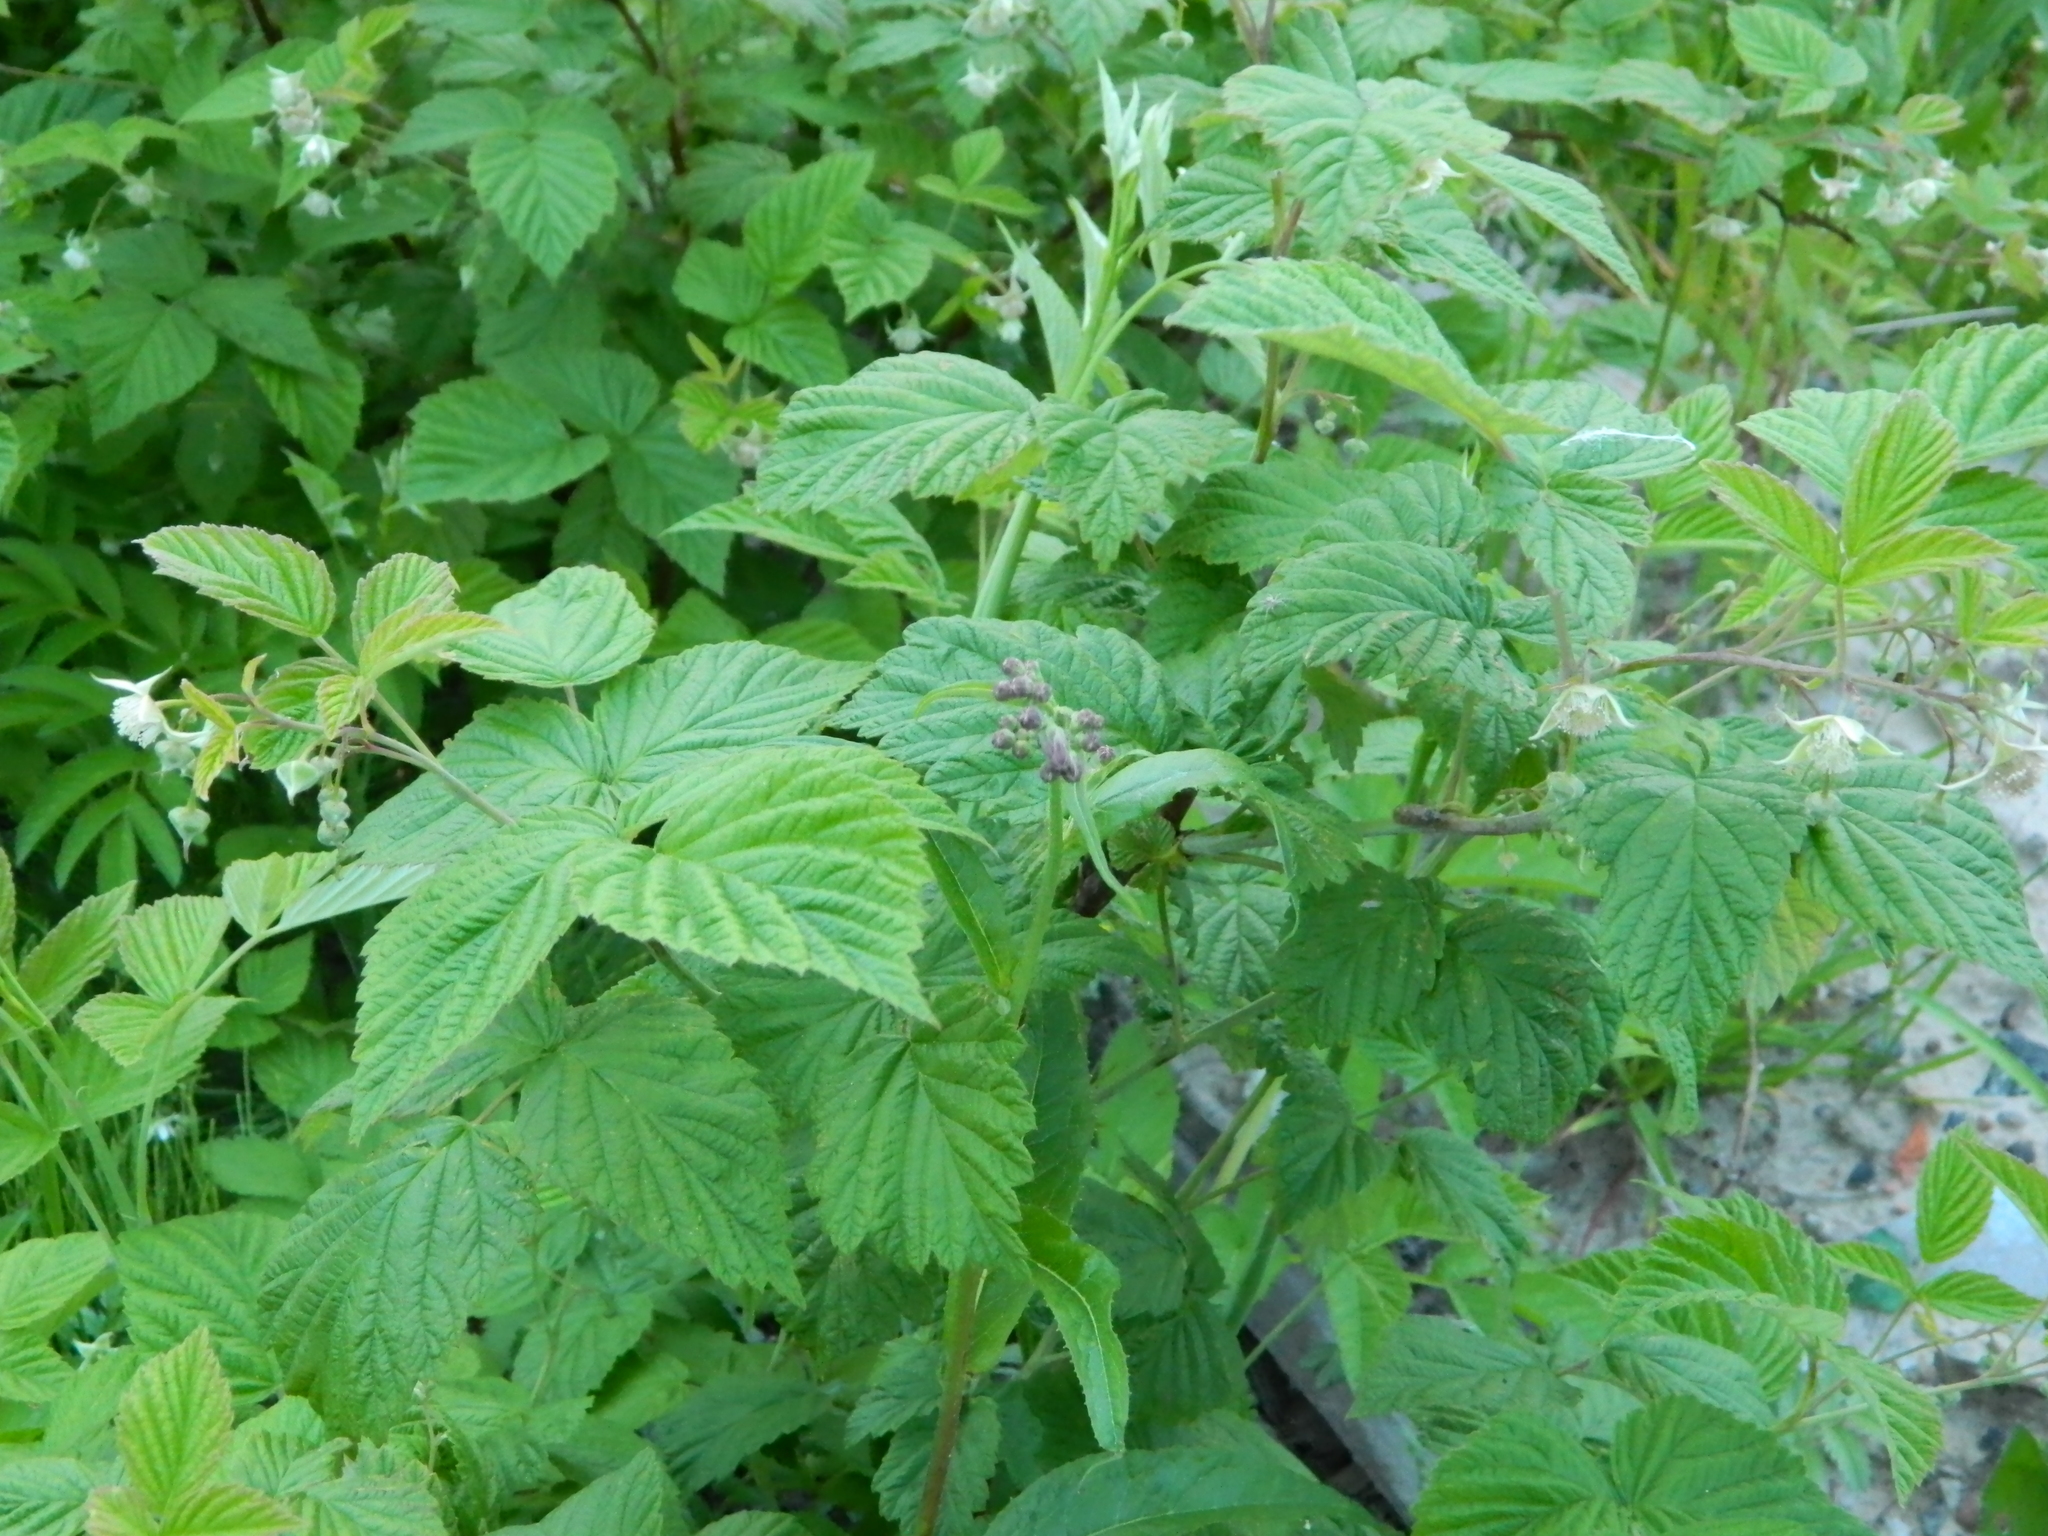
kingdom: Plantae
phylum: Tracheophyta
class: Magnoliopsida
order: Rosales
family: Rosaceae
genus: Rubus
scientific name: Rubus idaeus
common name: Raspberry
